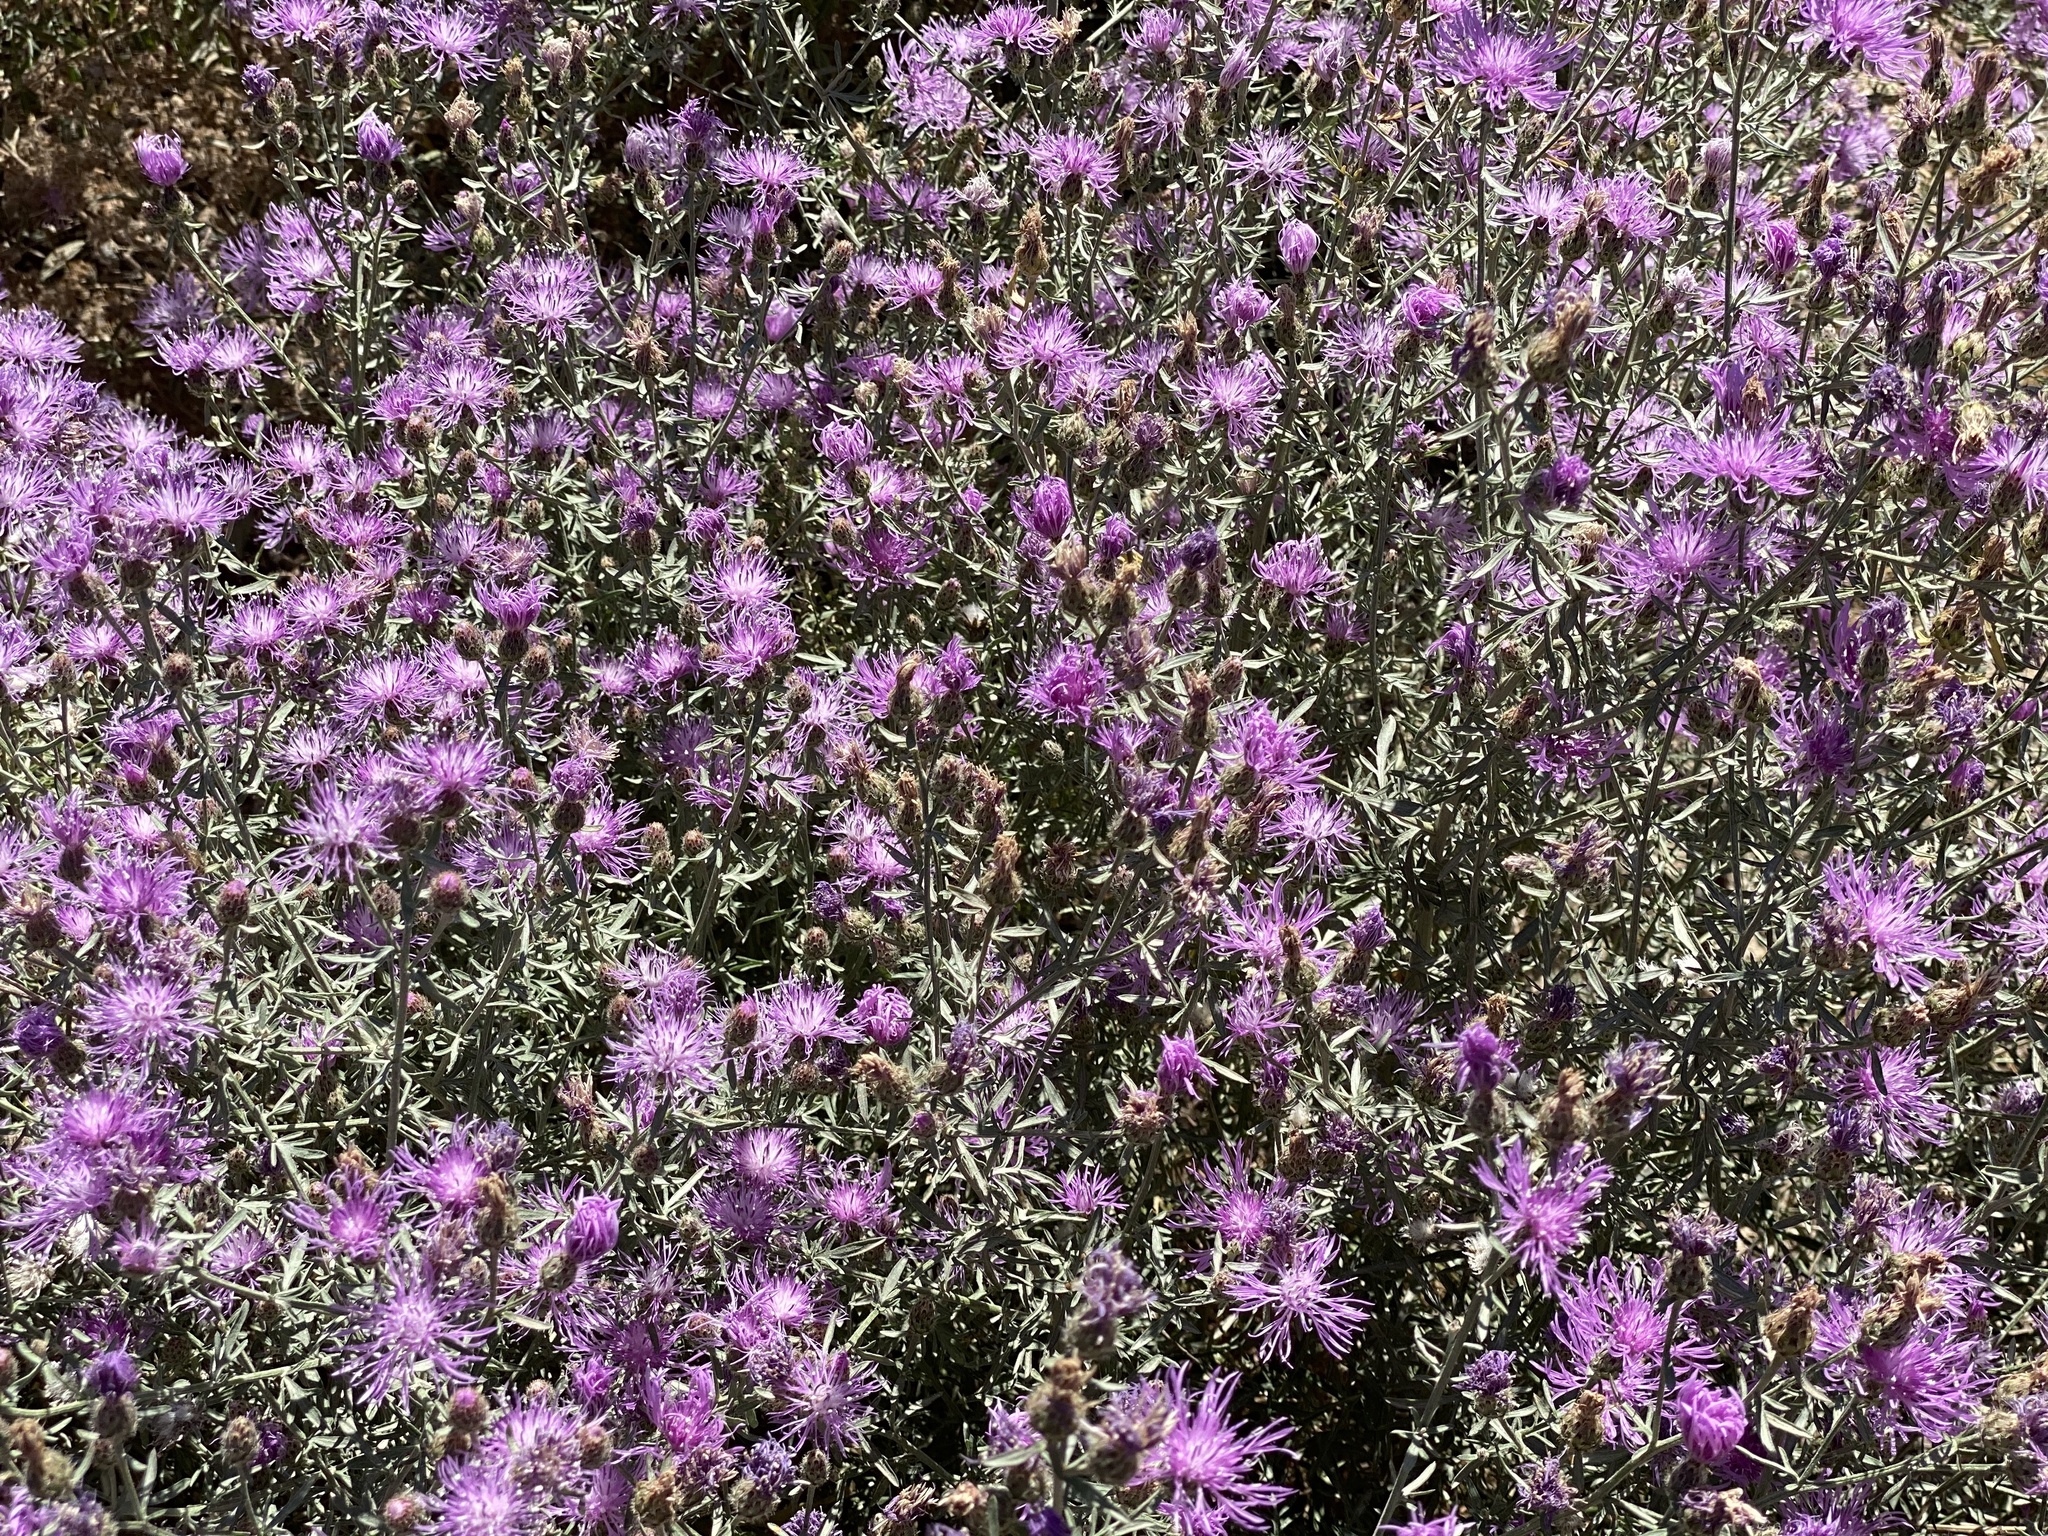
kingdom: Plantae
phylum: Tracheophyta
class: Magnoliopsida
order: Asterales
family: Asteraceae
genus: Centaurea
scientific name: Centaurea stoebe
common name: Spotted knapweed
